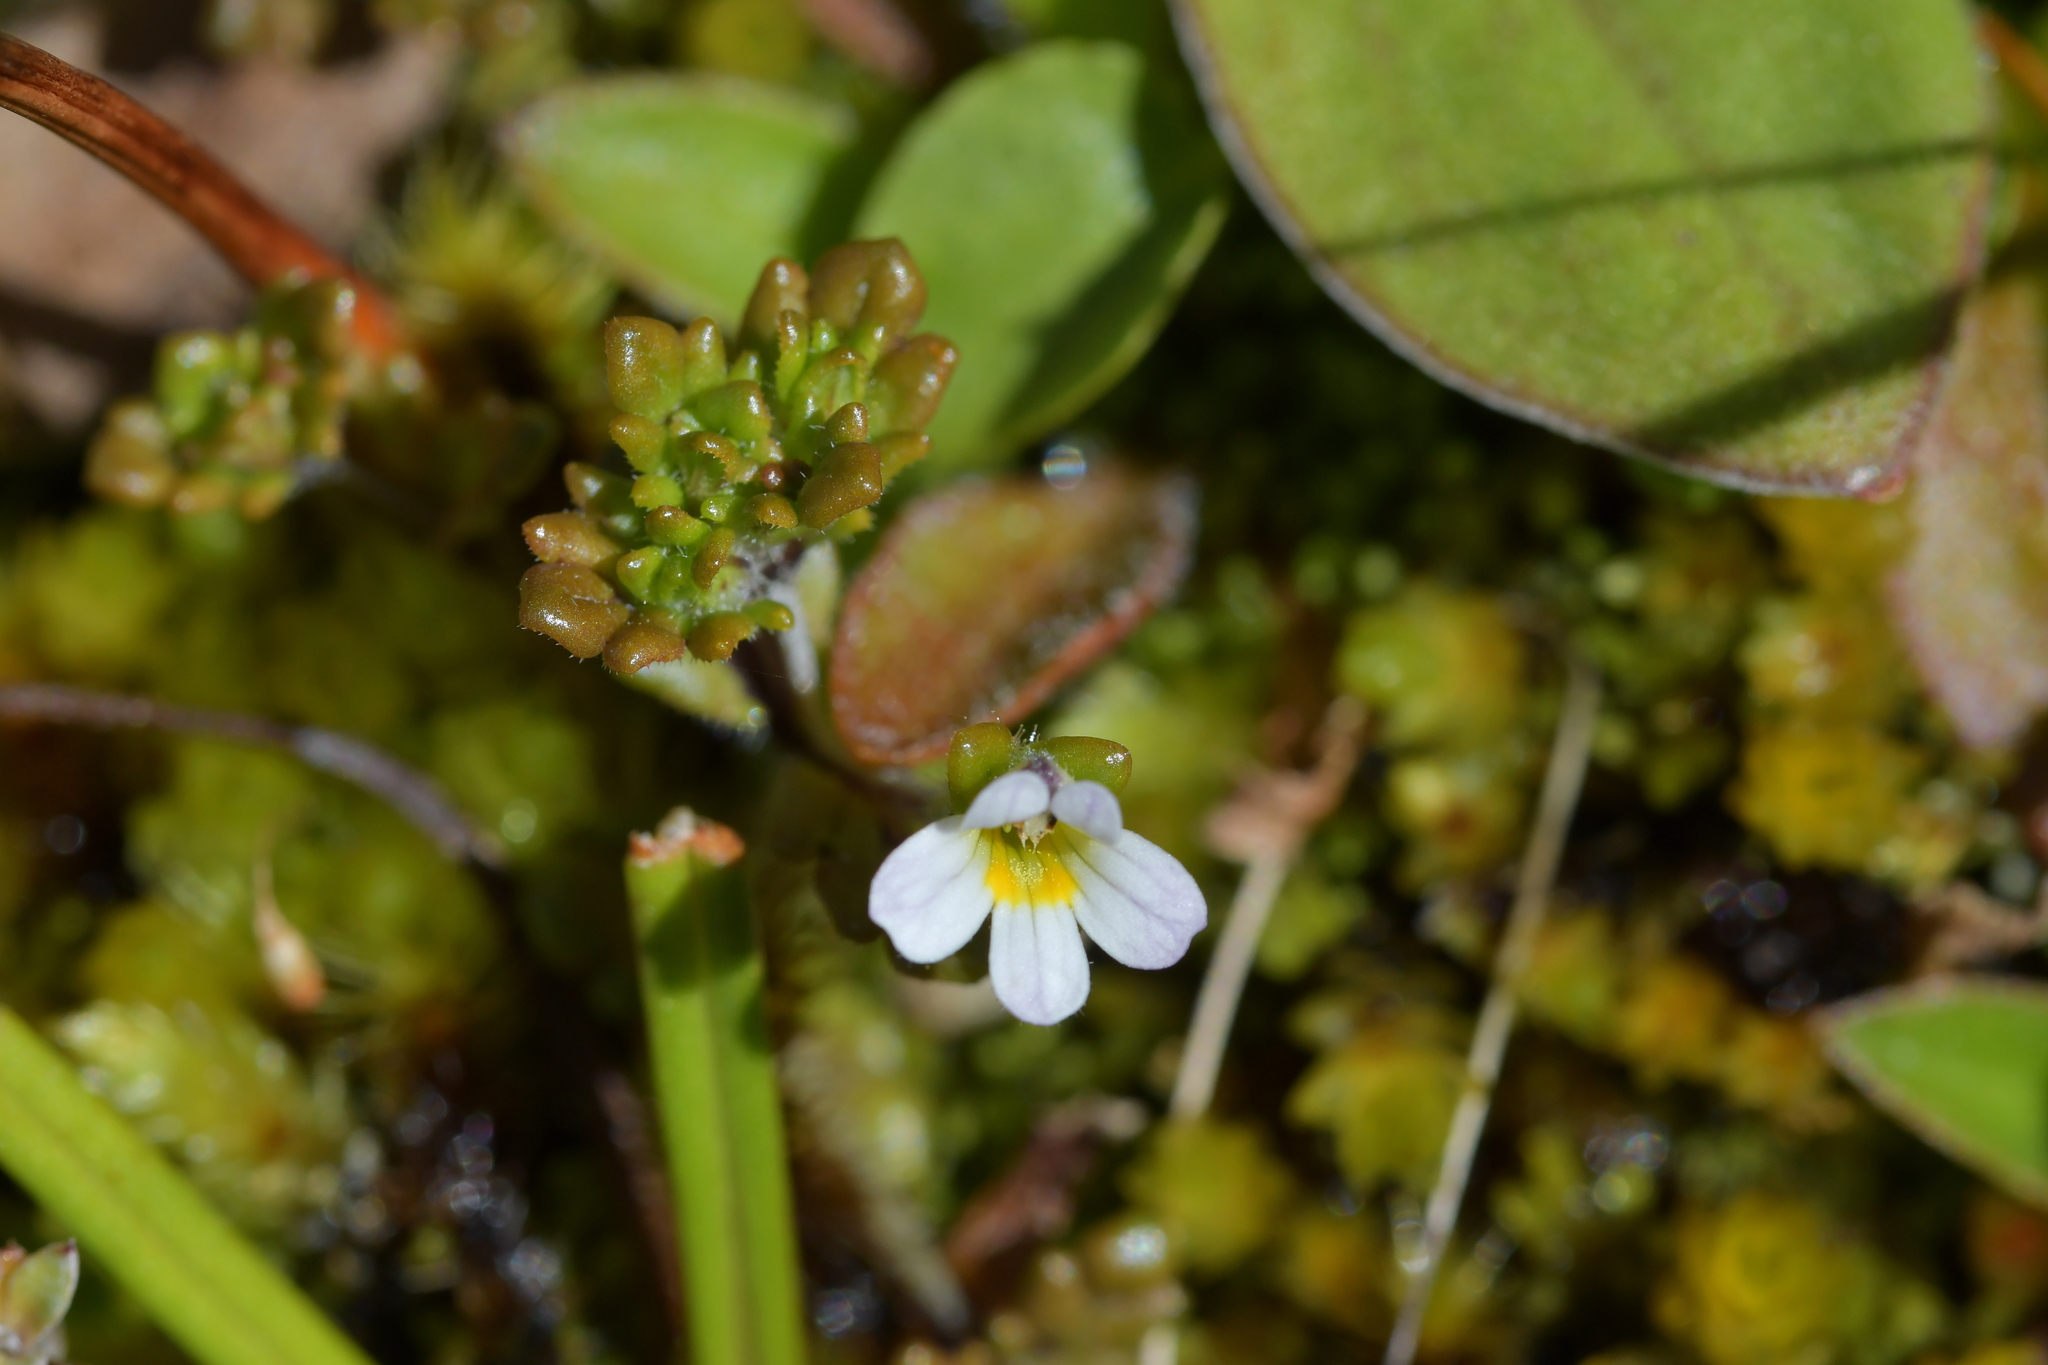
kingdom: Plantae
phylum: Tracheophyta
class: Magnoliopsida
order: Lamiales
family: Orobanchaceae
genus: Euphrasia
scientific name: Euphrasia australis
